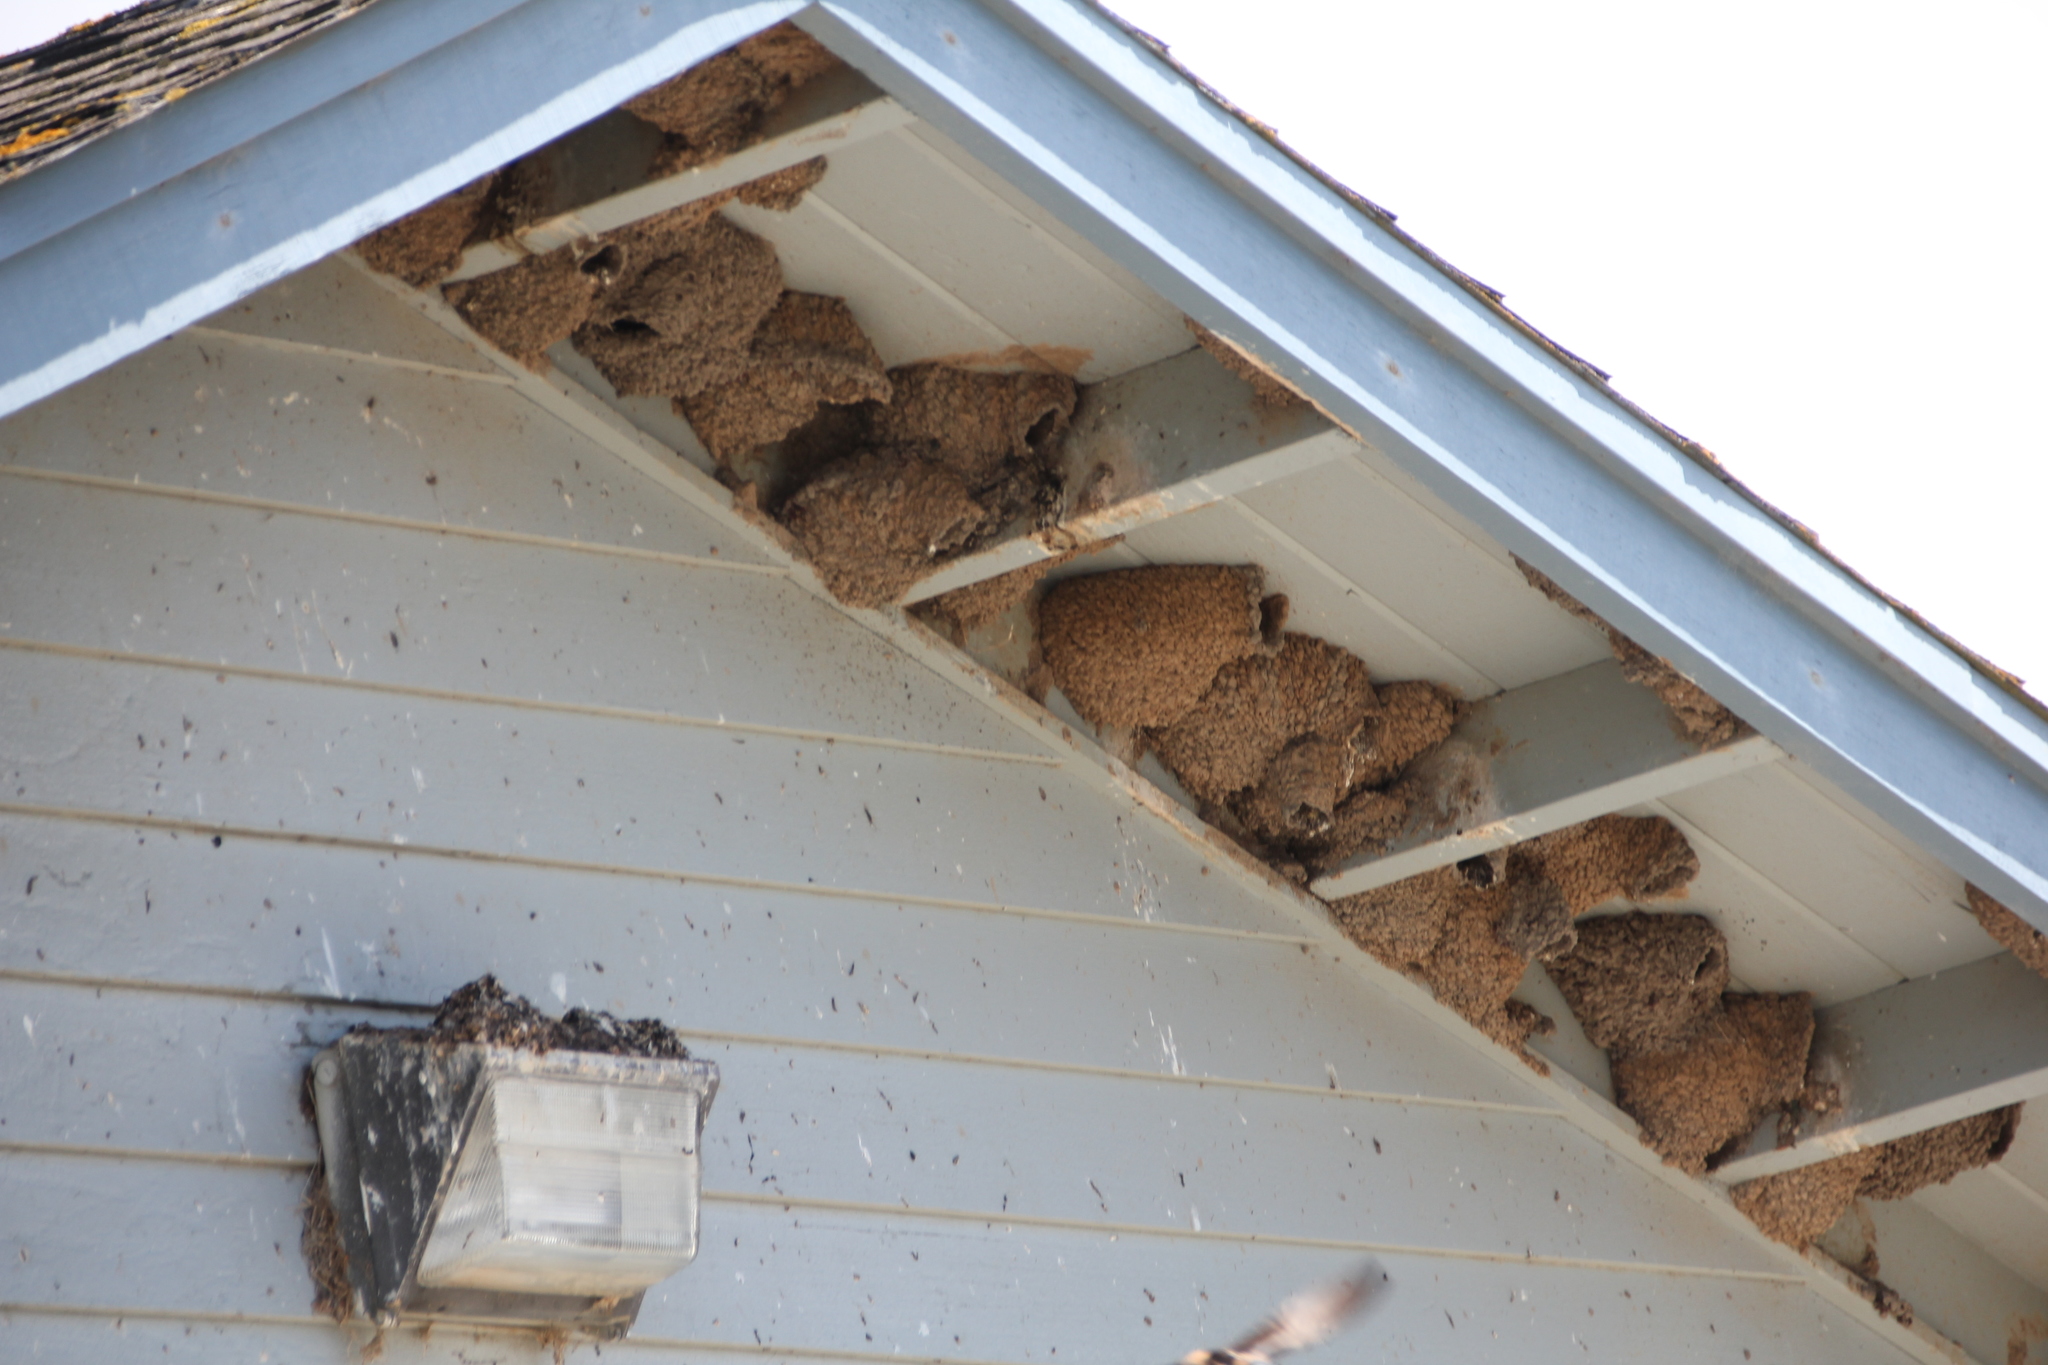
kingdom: Animalia
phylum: Chordata
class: Aves
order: Passeriformes
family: Hirundinidae
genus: Petrochelidon
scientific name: Petrochelidon pyrrhonota
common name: American cliff swallow
